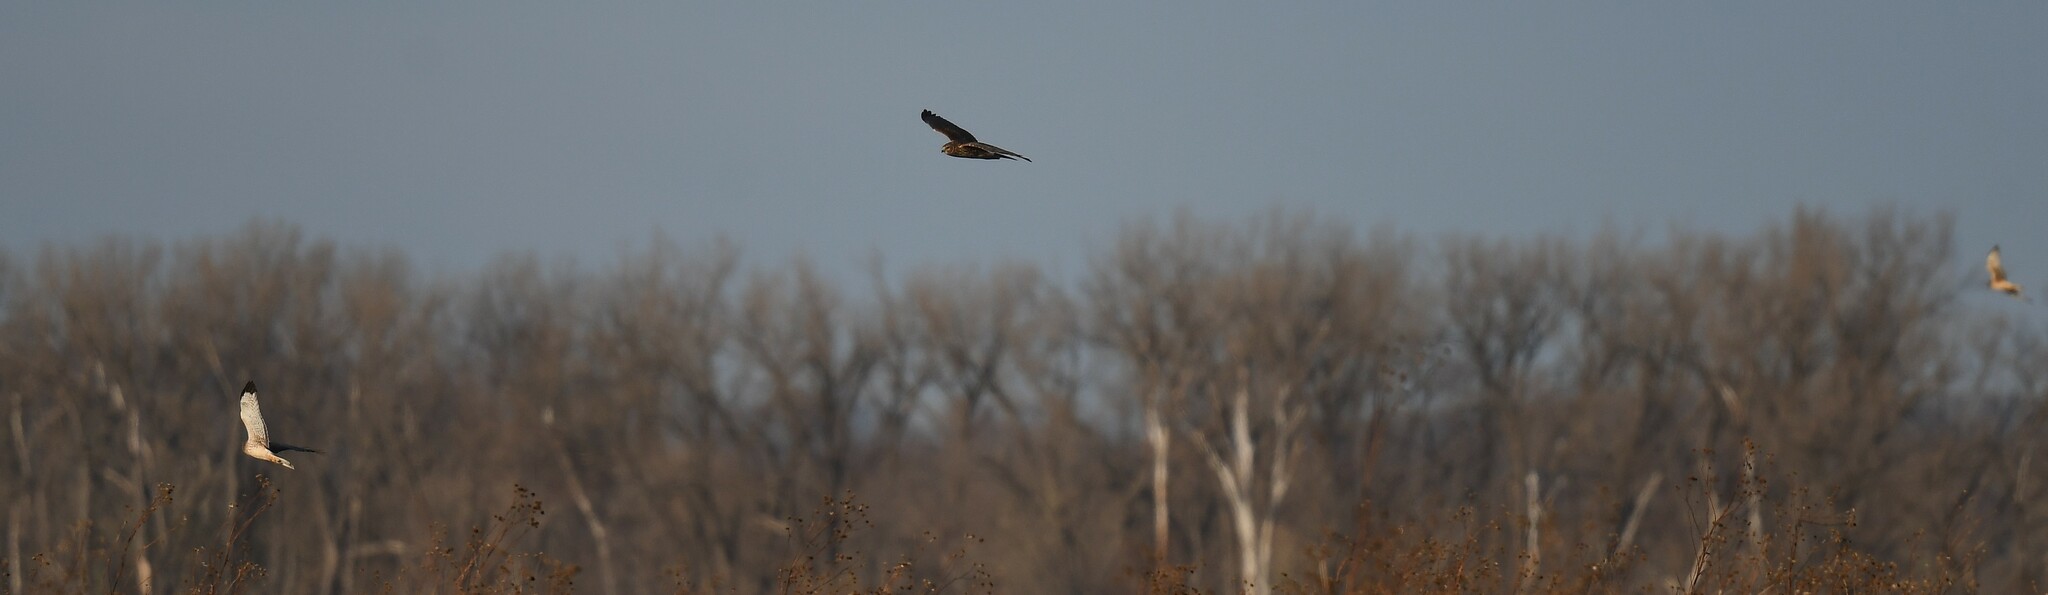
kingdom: Animalia
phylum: Chordata
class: Aves
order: Accipitriformes
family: Accipitridae
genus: Circus
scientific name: Circus cyaneus
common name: Hen harrier
